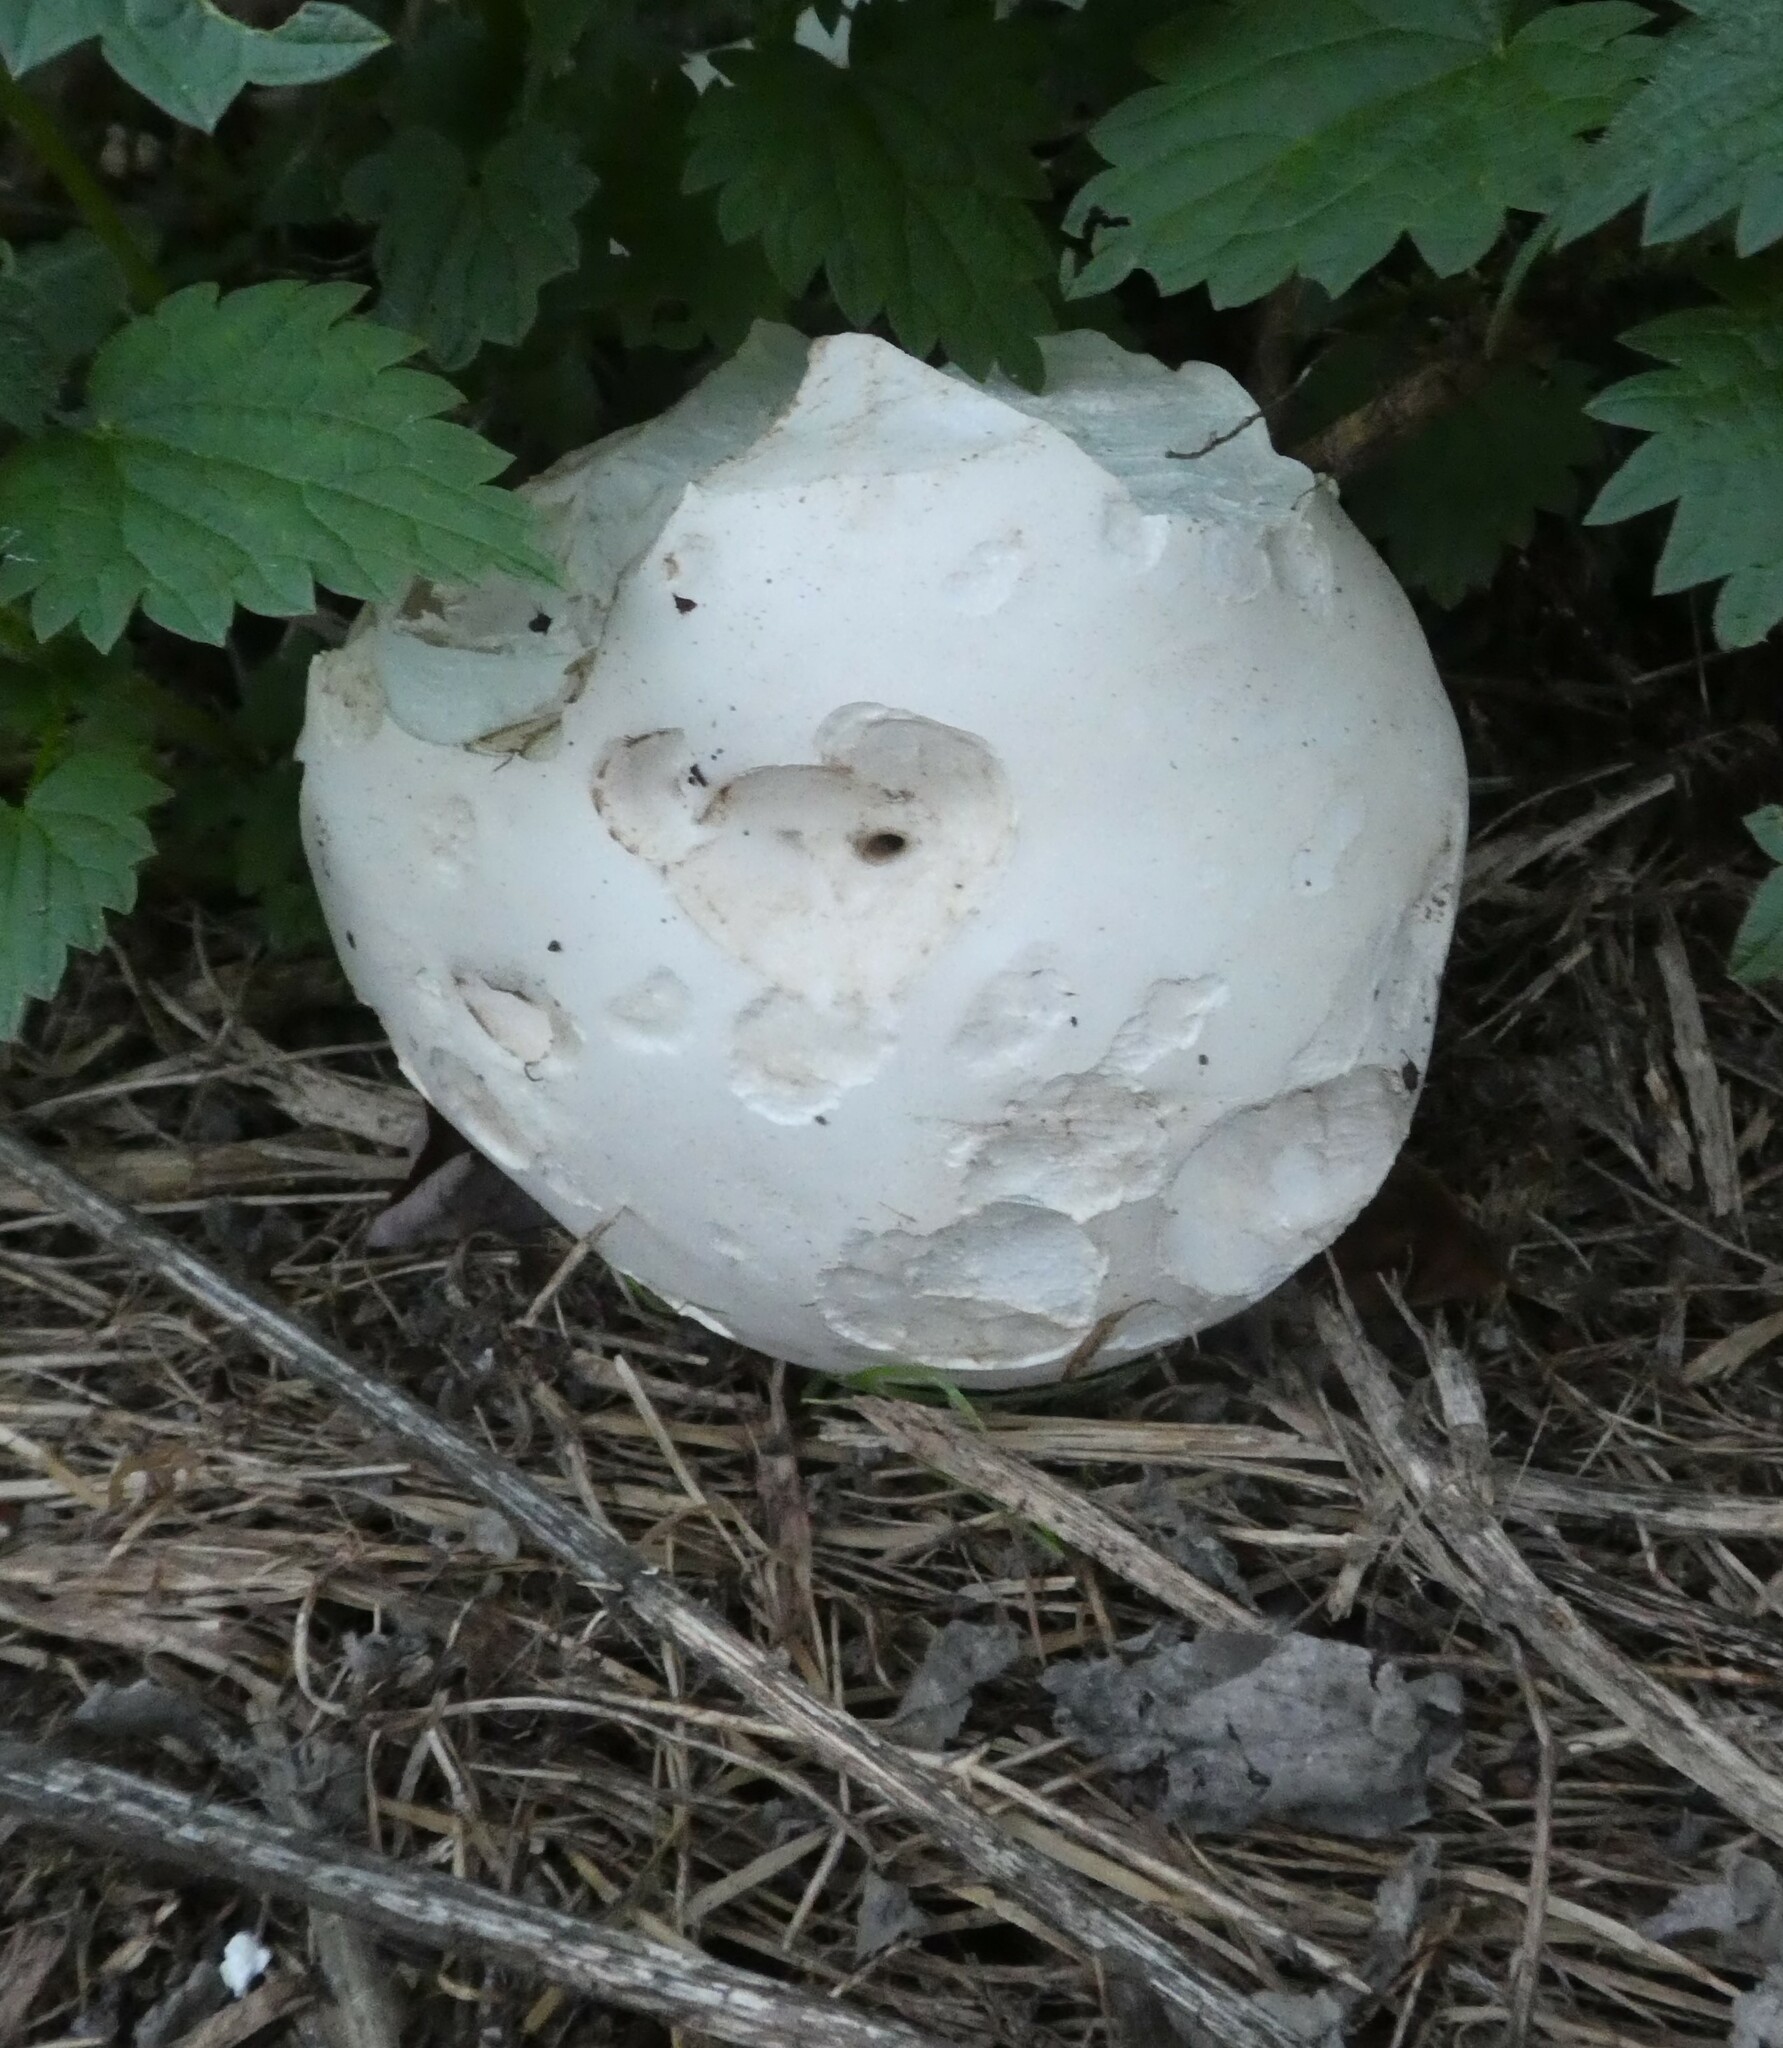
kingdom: Fungi
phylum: Basidiomycota
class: Agaricomycetes
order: Agaricales
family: Lycoperdaceae
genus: Calvatia
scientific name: Calvatia gigantea
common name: Giant puffball
